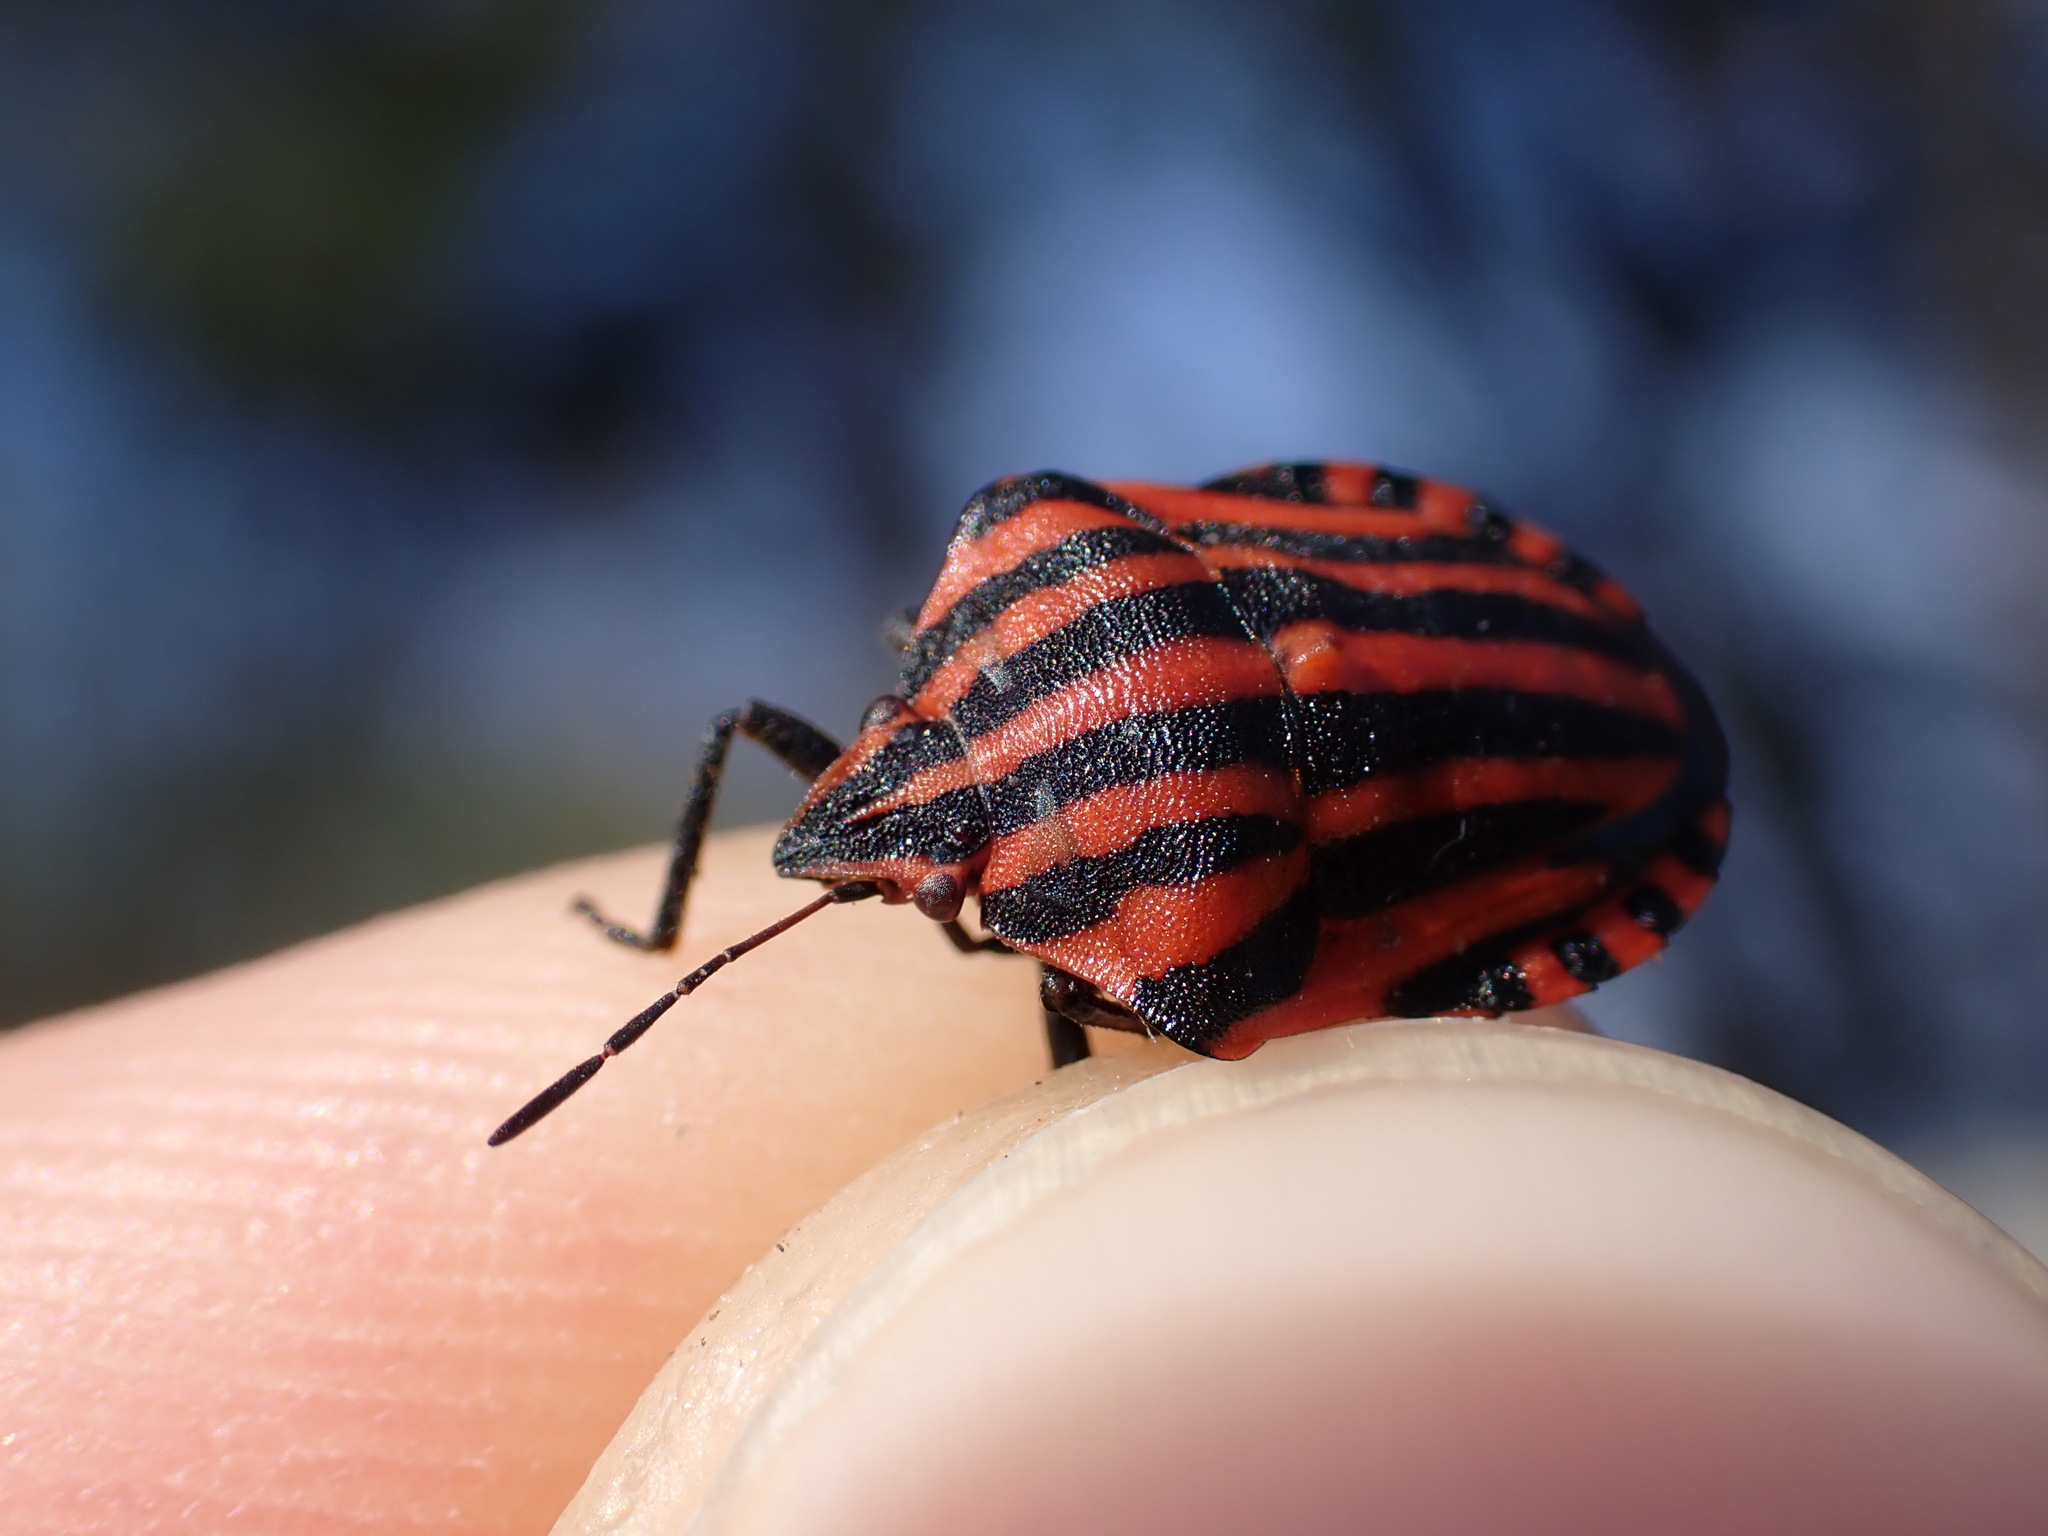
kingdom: Animalia
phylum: Arthropoda
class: Insecta
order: Hemiptera
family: Pentatomidae
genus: Graphosoma
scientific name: Graphosoma italicum
